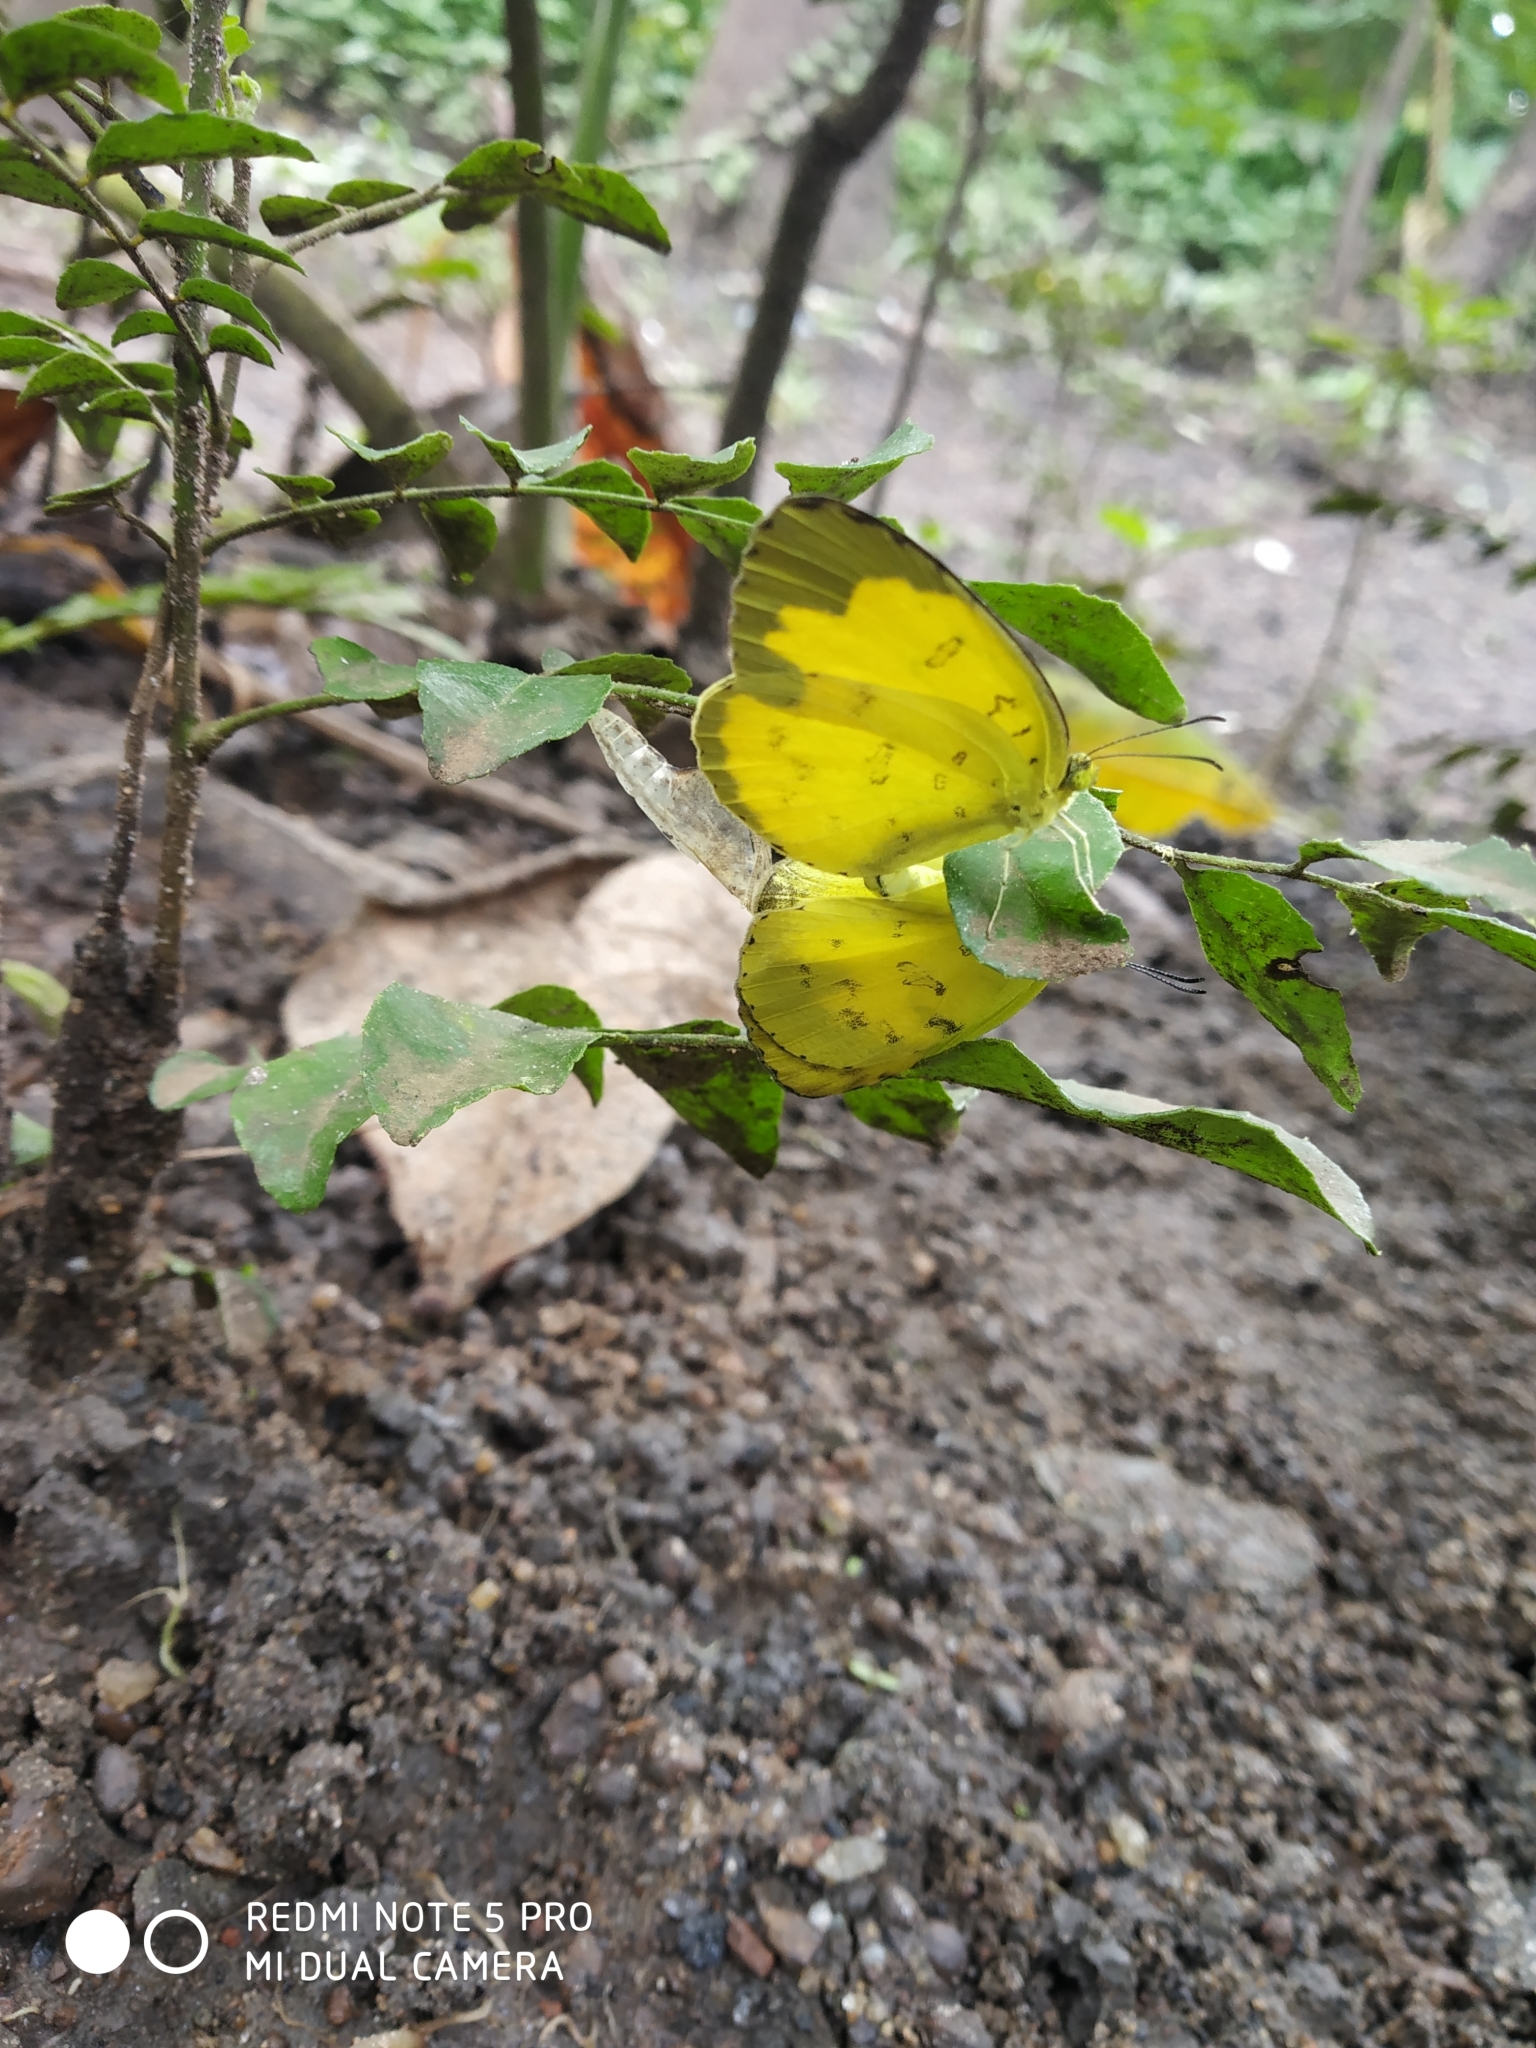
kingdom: Animalia
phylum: Arthropoda
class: Insecta
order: Lepidoptera
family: Pieridae
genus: Eurema
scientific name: Eurema blanda
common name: Three-spot grass yellow
